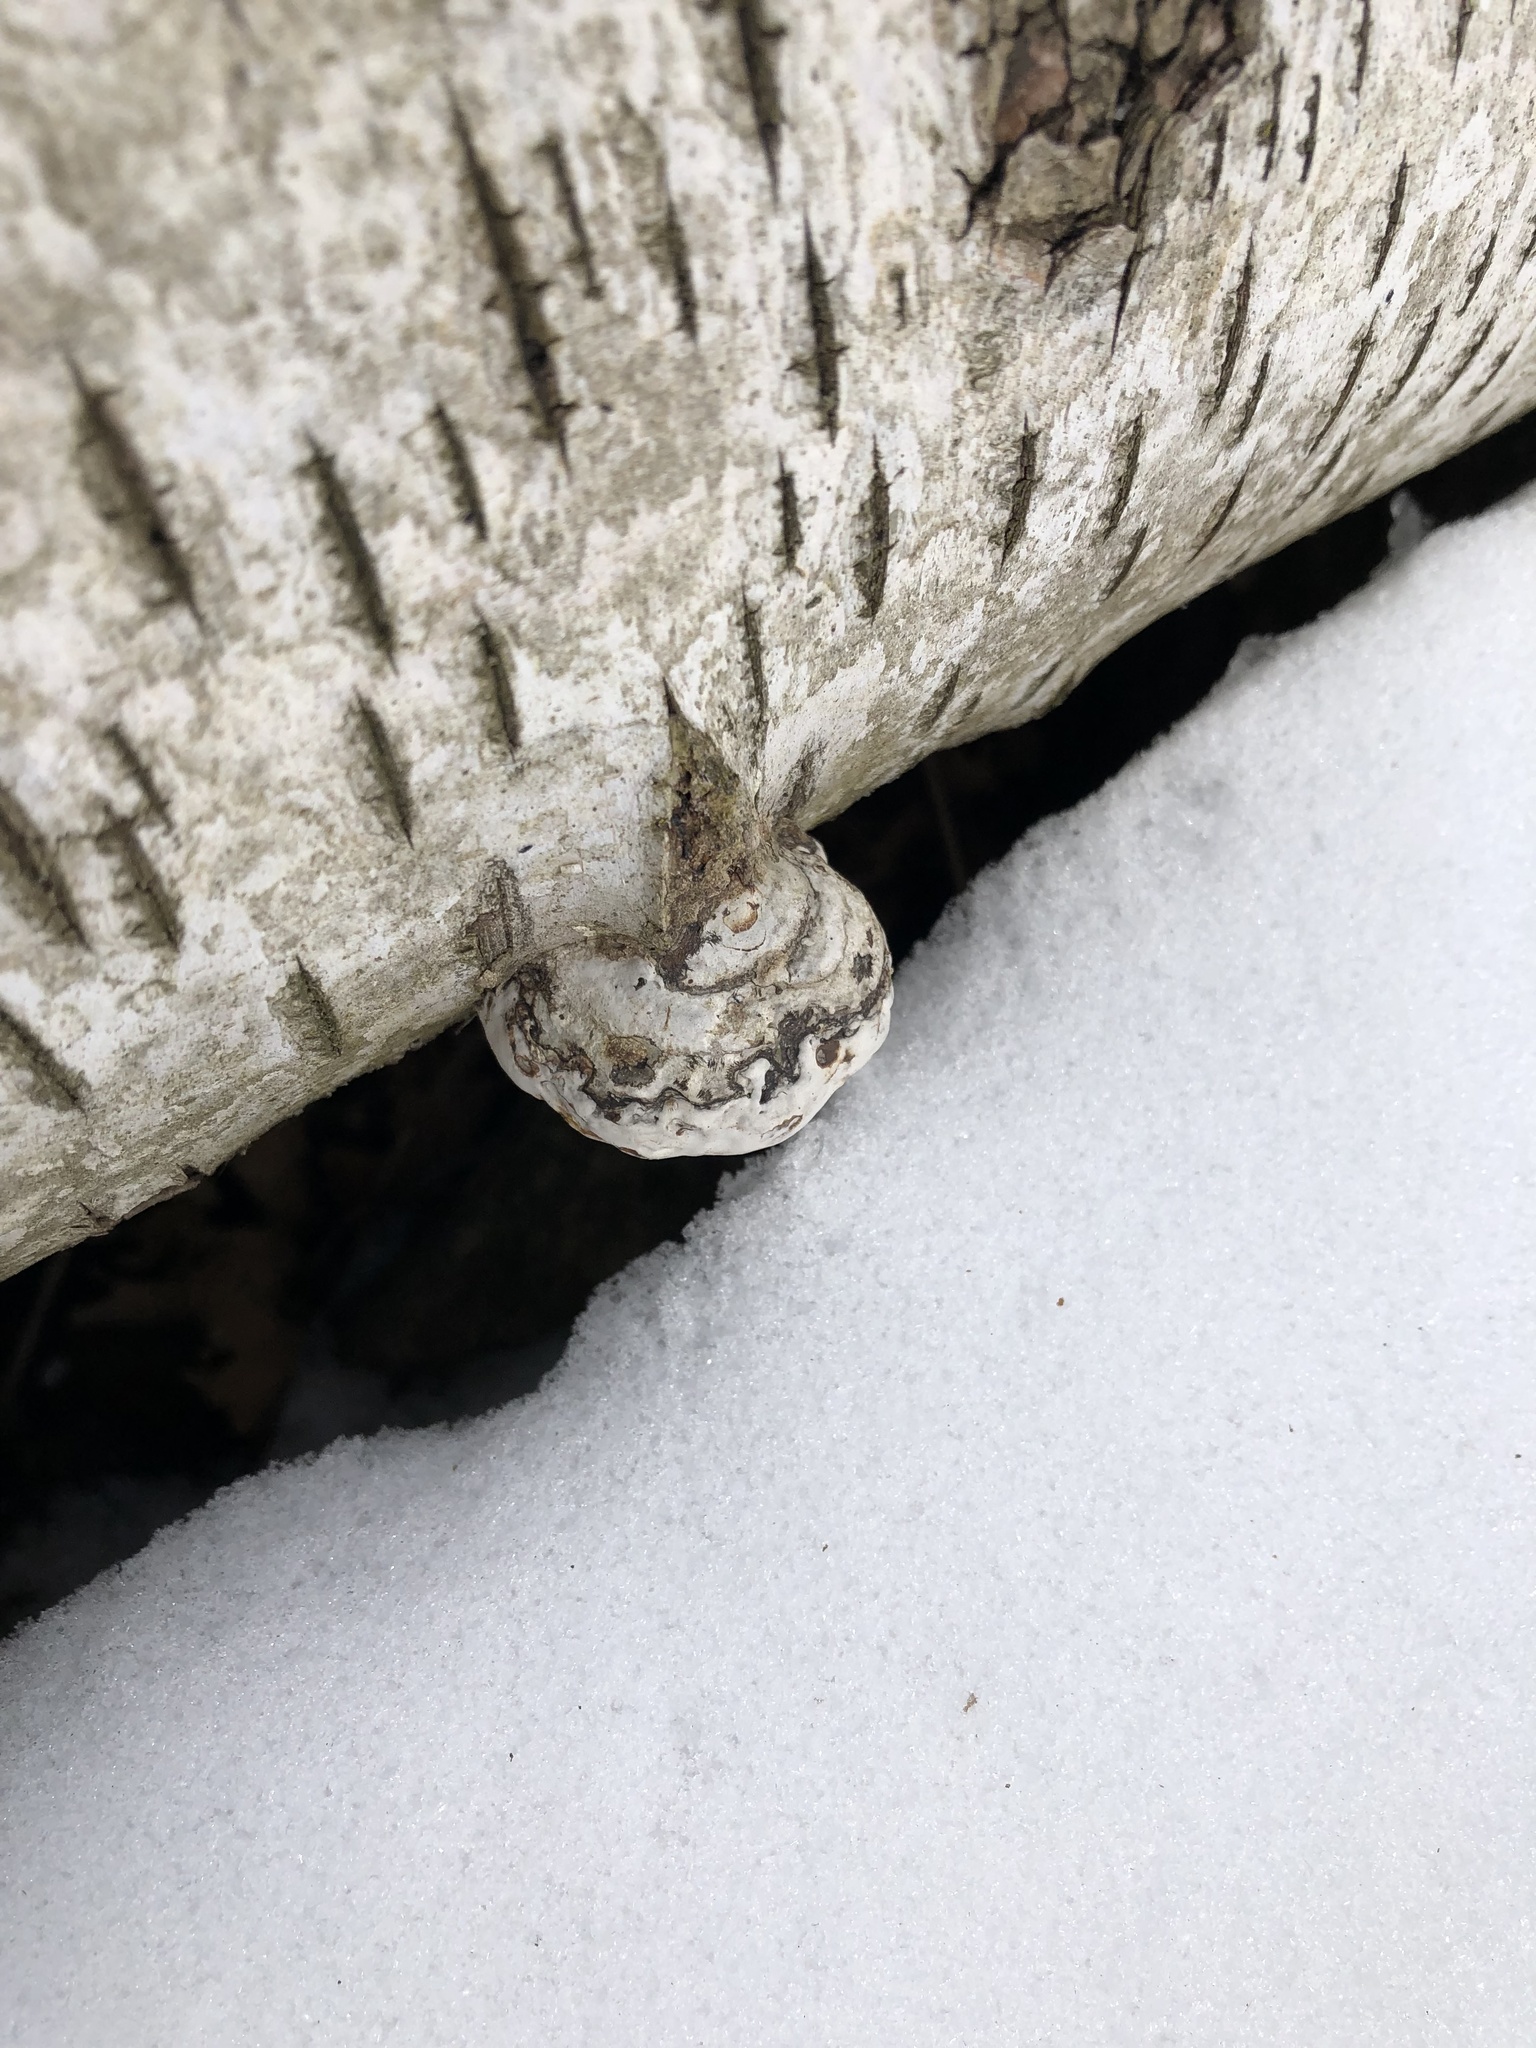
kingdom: Fungi
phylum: Basidiomycota
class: Agaricomycetes
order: Polyporales
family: Polyporaceae
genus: Fomes
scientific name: Fomes fomentarius
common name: Hoof fungus
